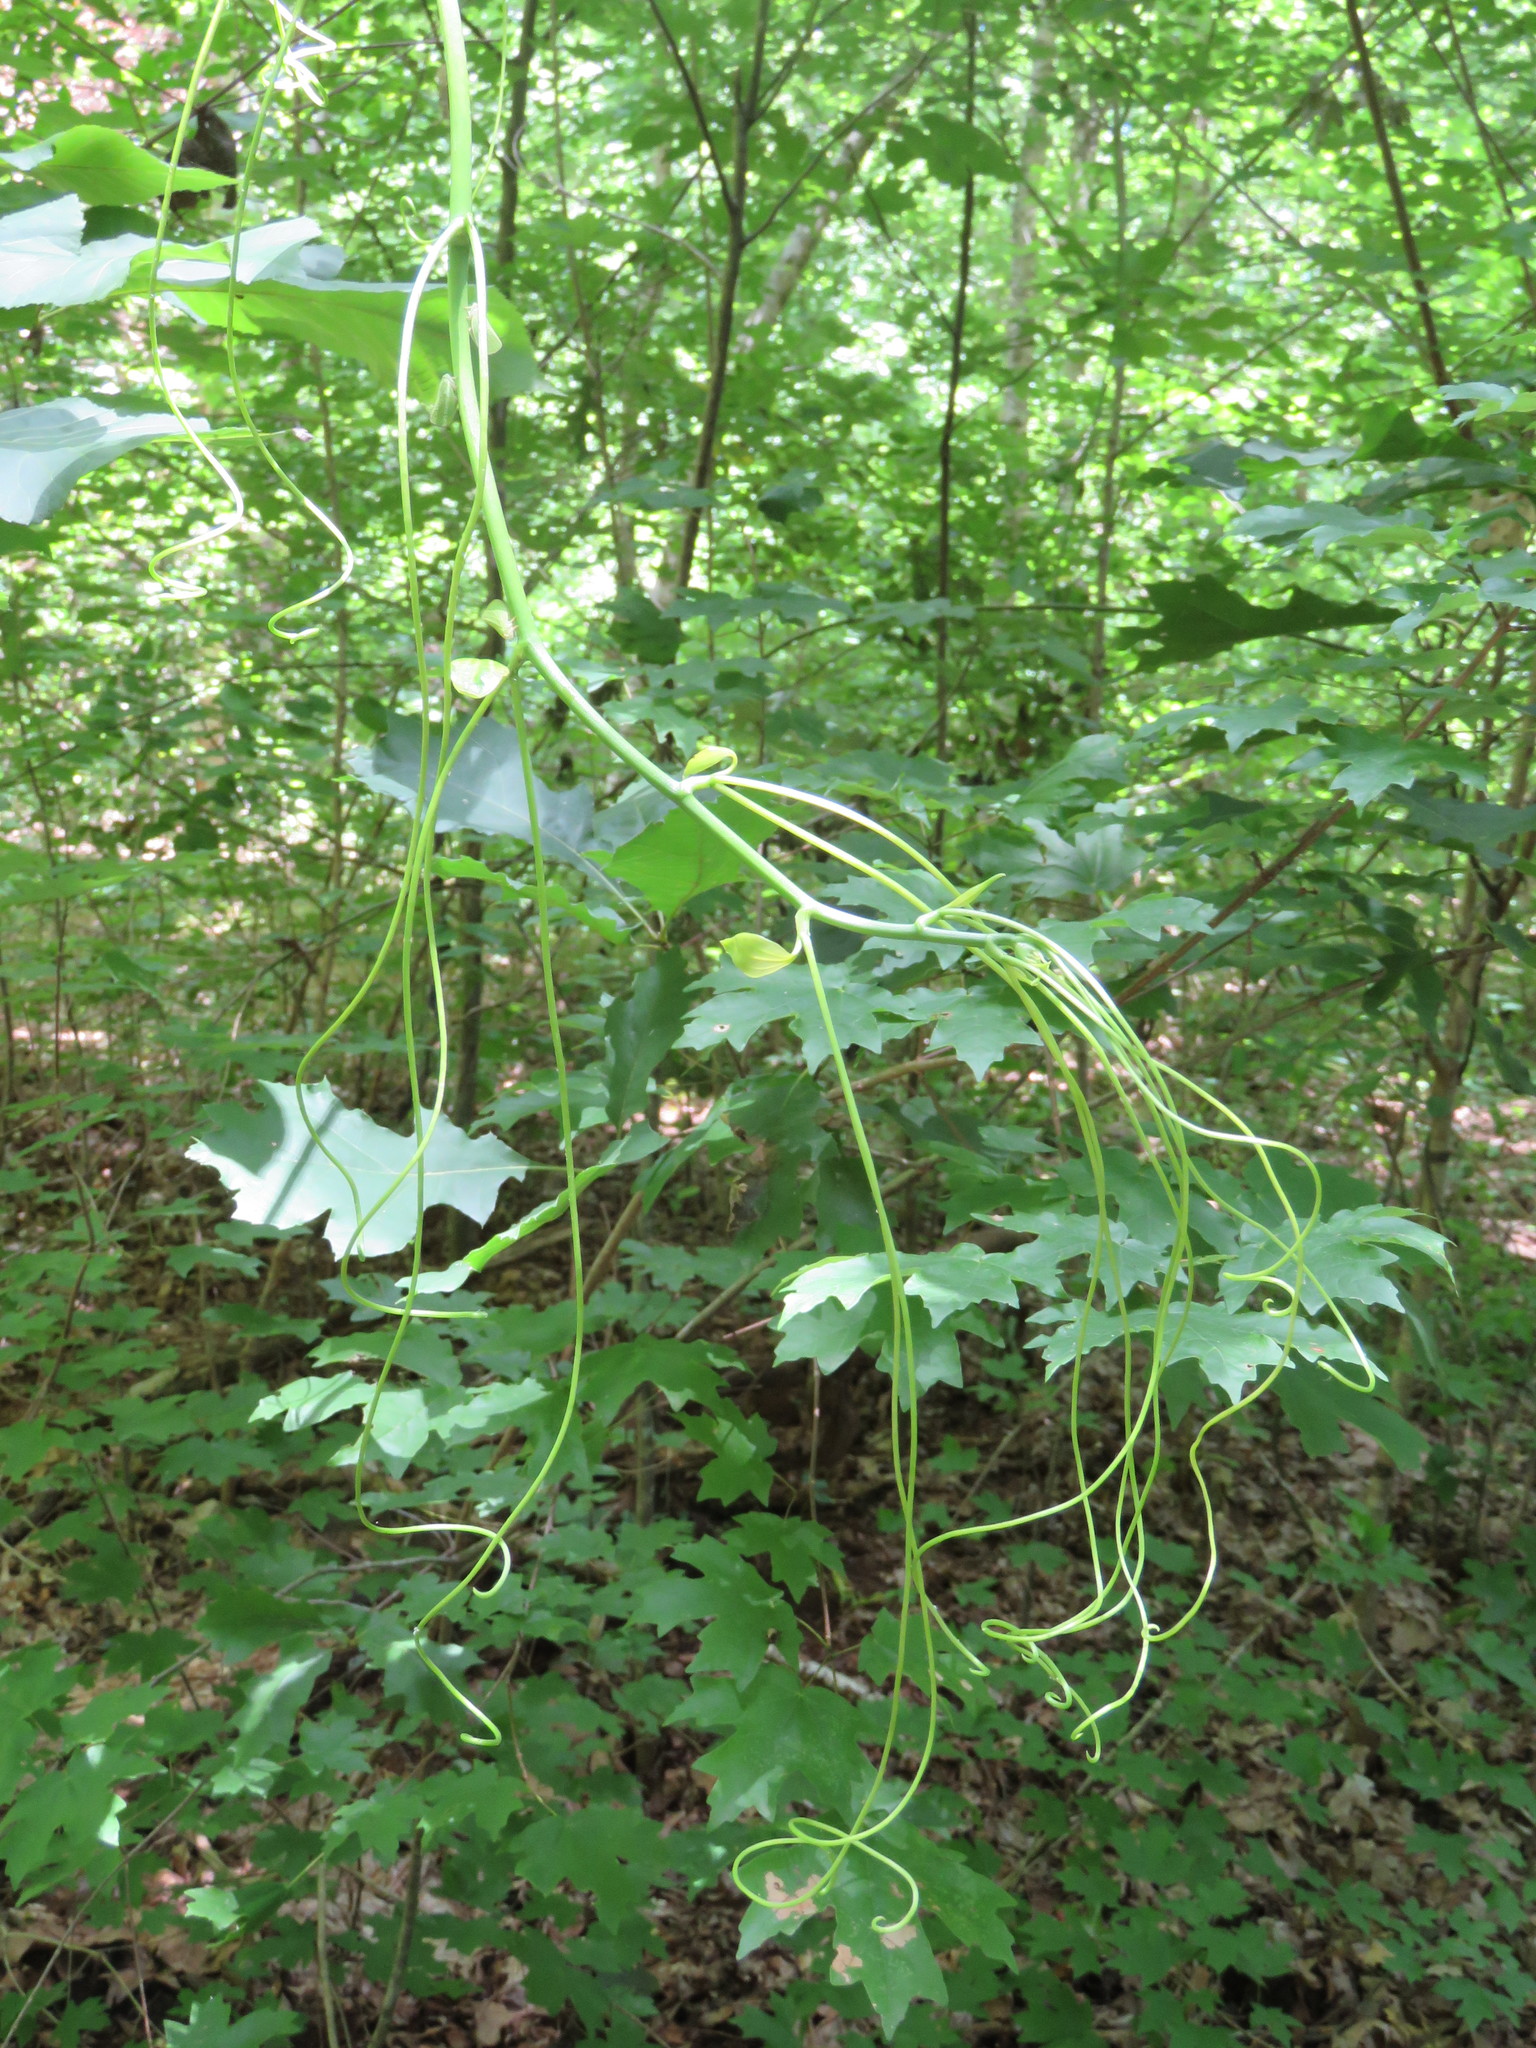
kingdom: Plantae
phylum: Tracheophyta
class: Liliopsida
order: Liliales
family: Smilacaceae
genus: Smilax
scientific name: Smilax maritima
